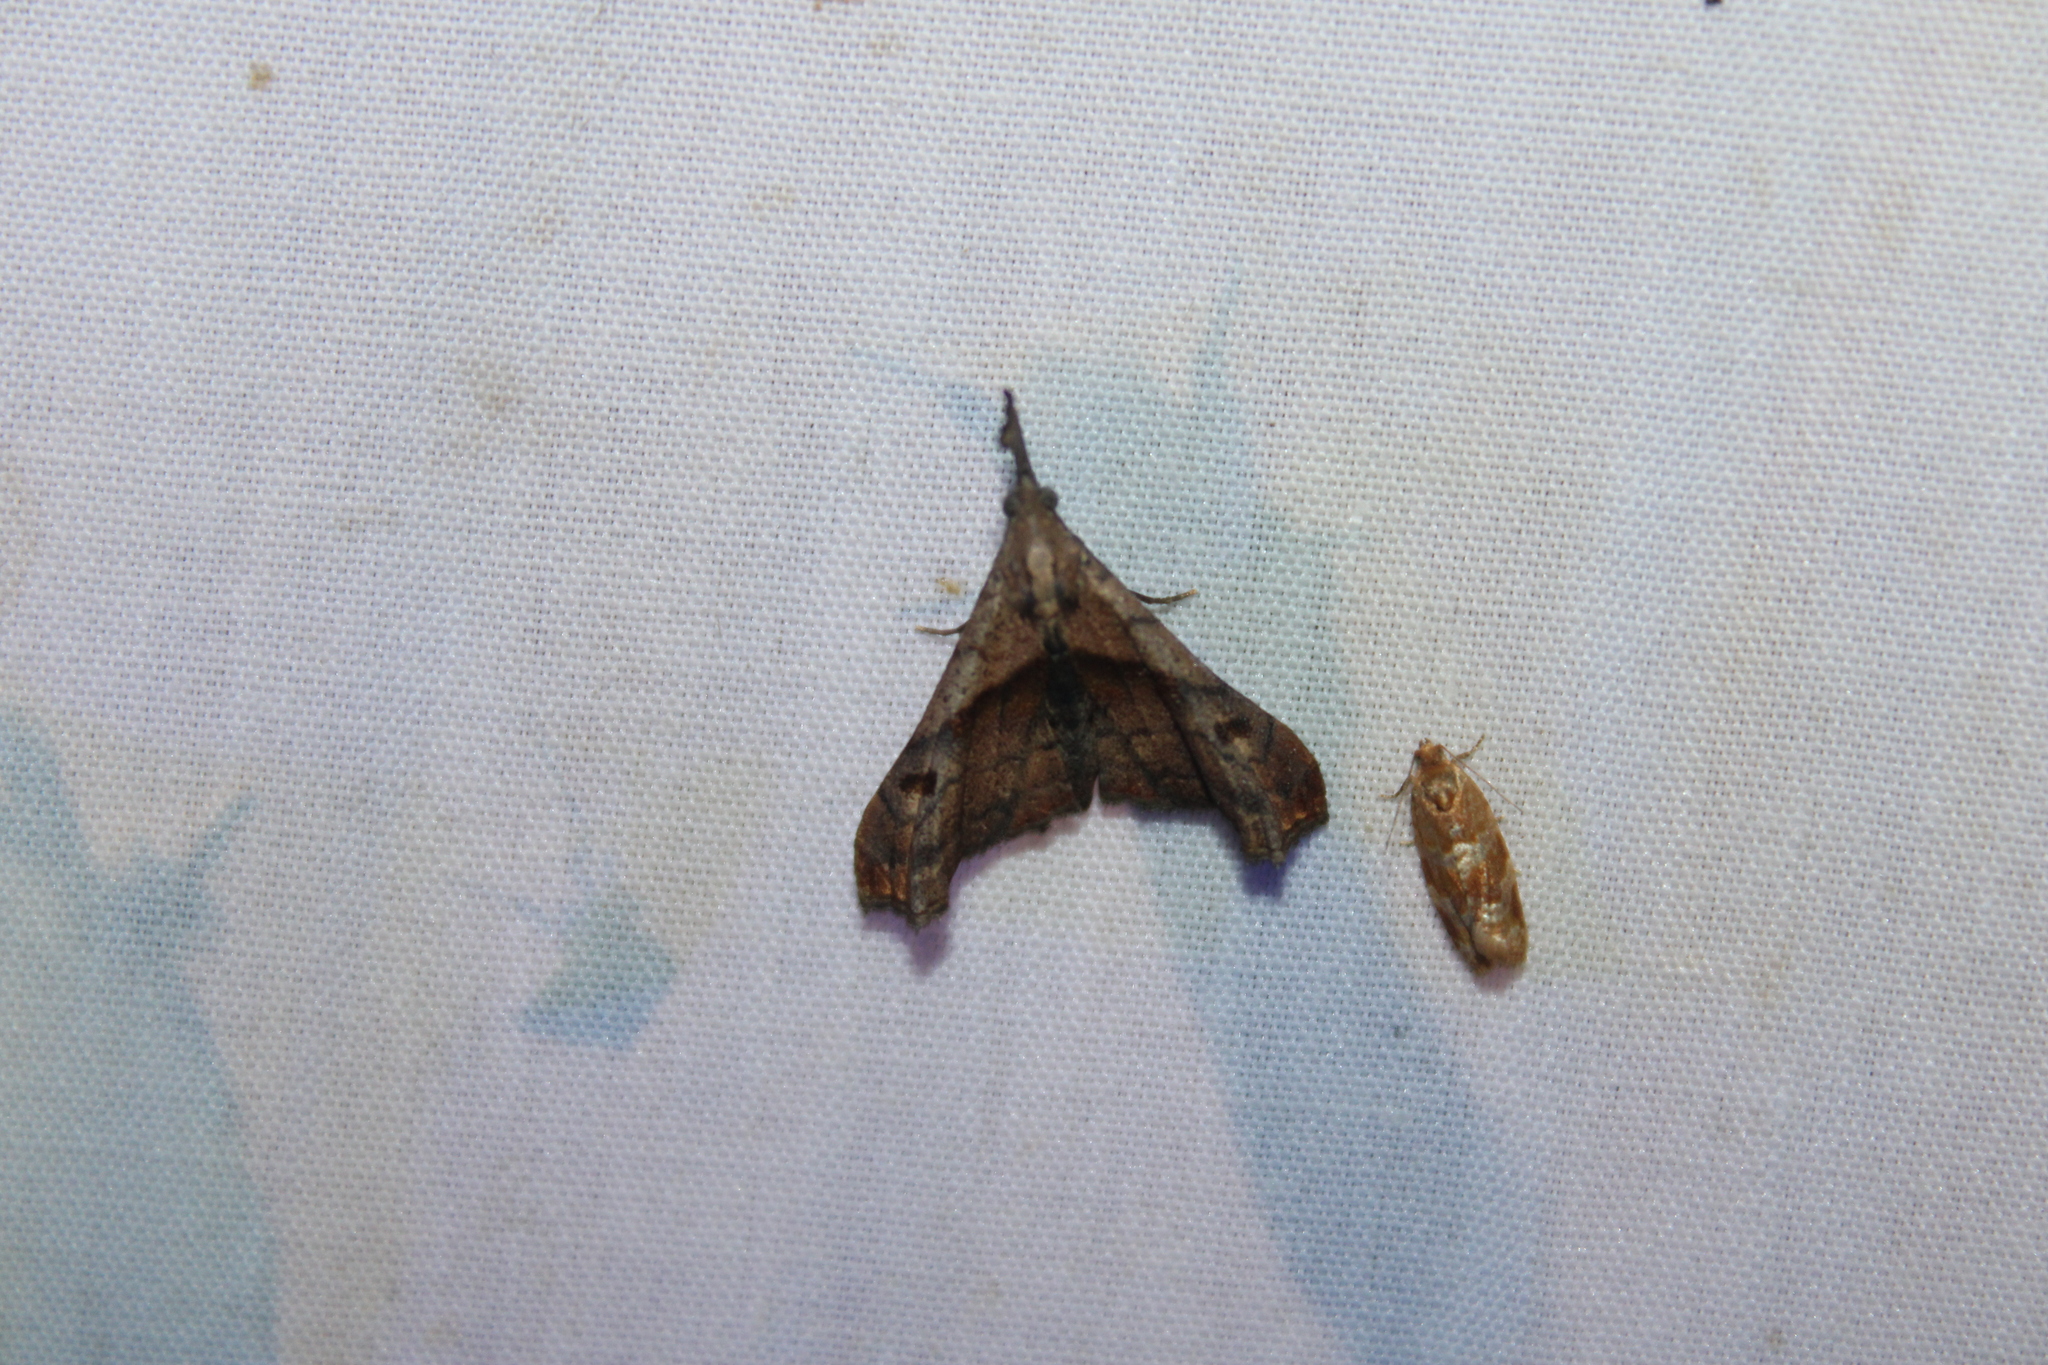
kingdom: Animalia
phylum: Arthropoda
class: Insecta
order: Lepidoptera
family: Erebidae
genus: Palthis
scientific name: Palthis angulalis
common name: Dark-spotted palthis moth
